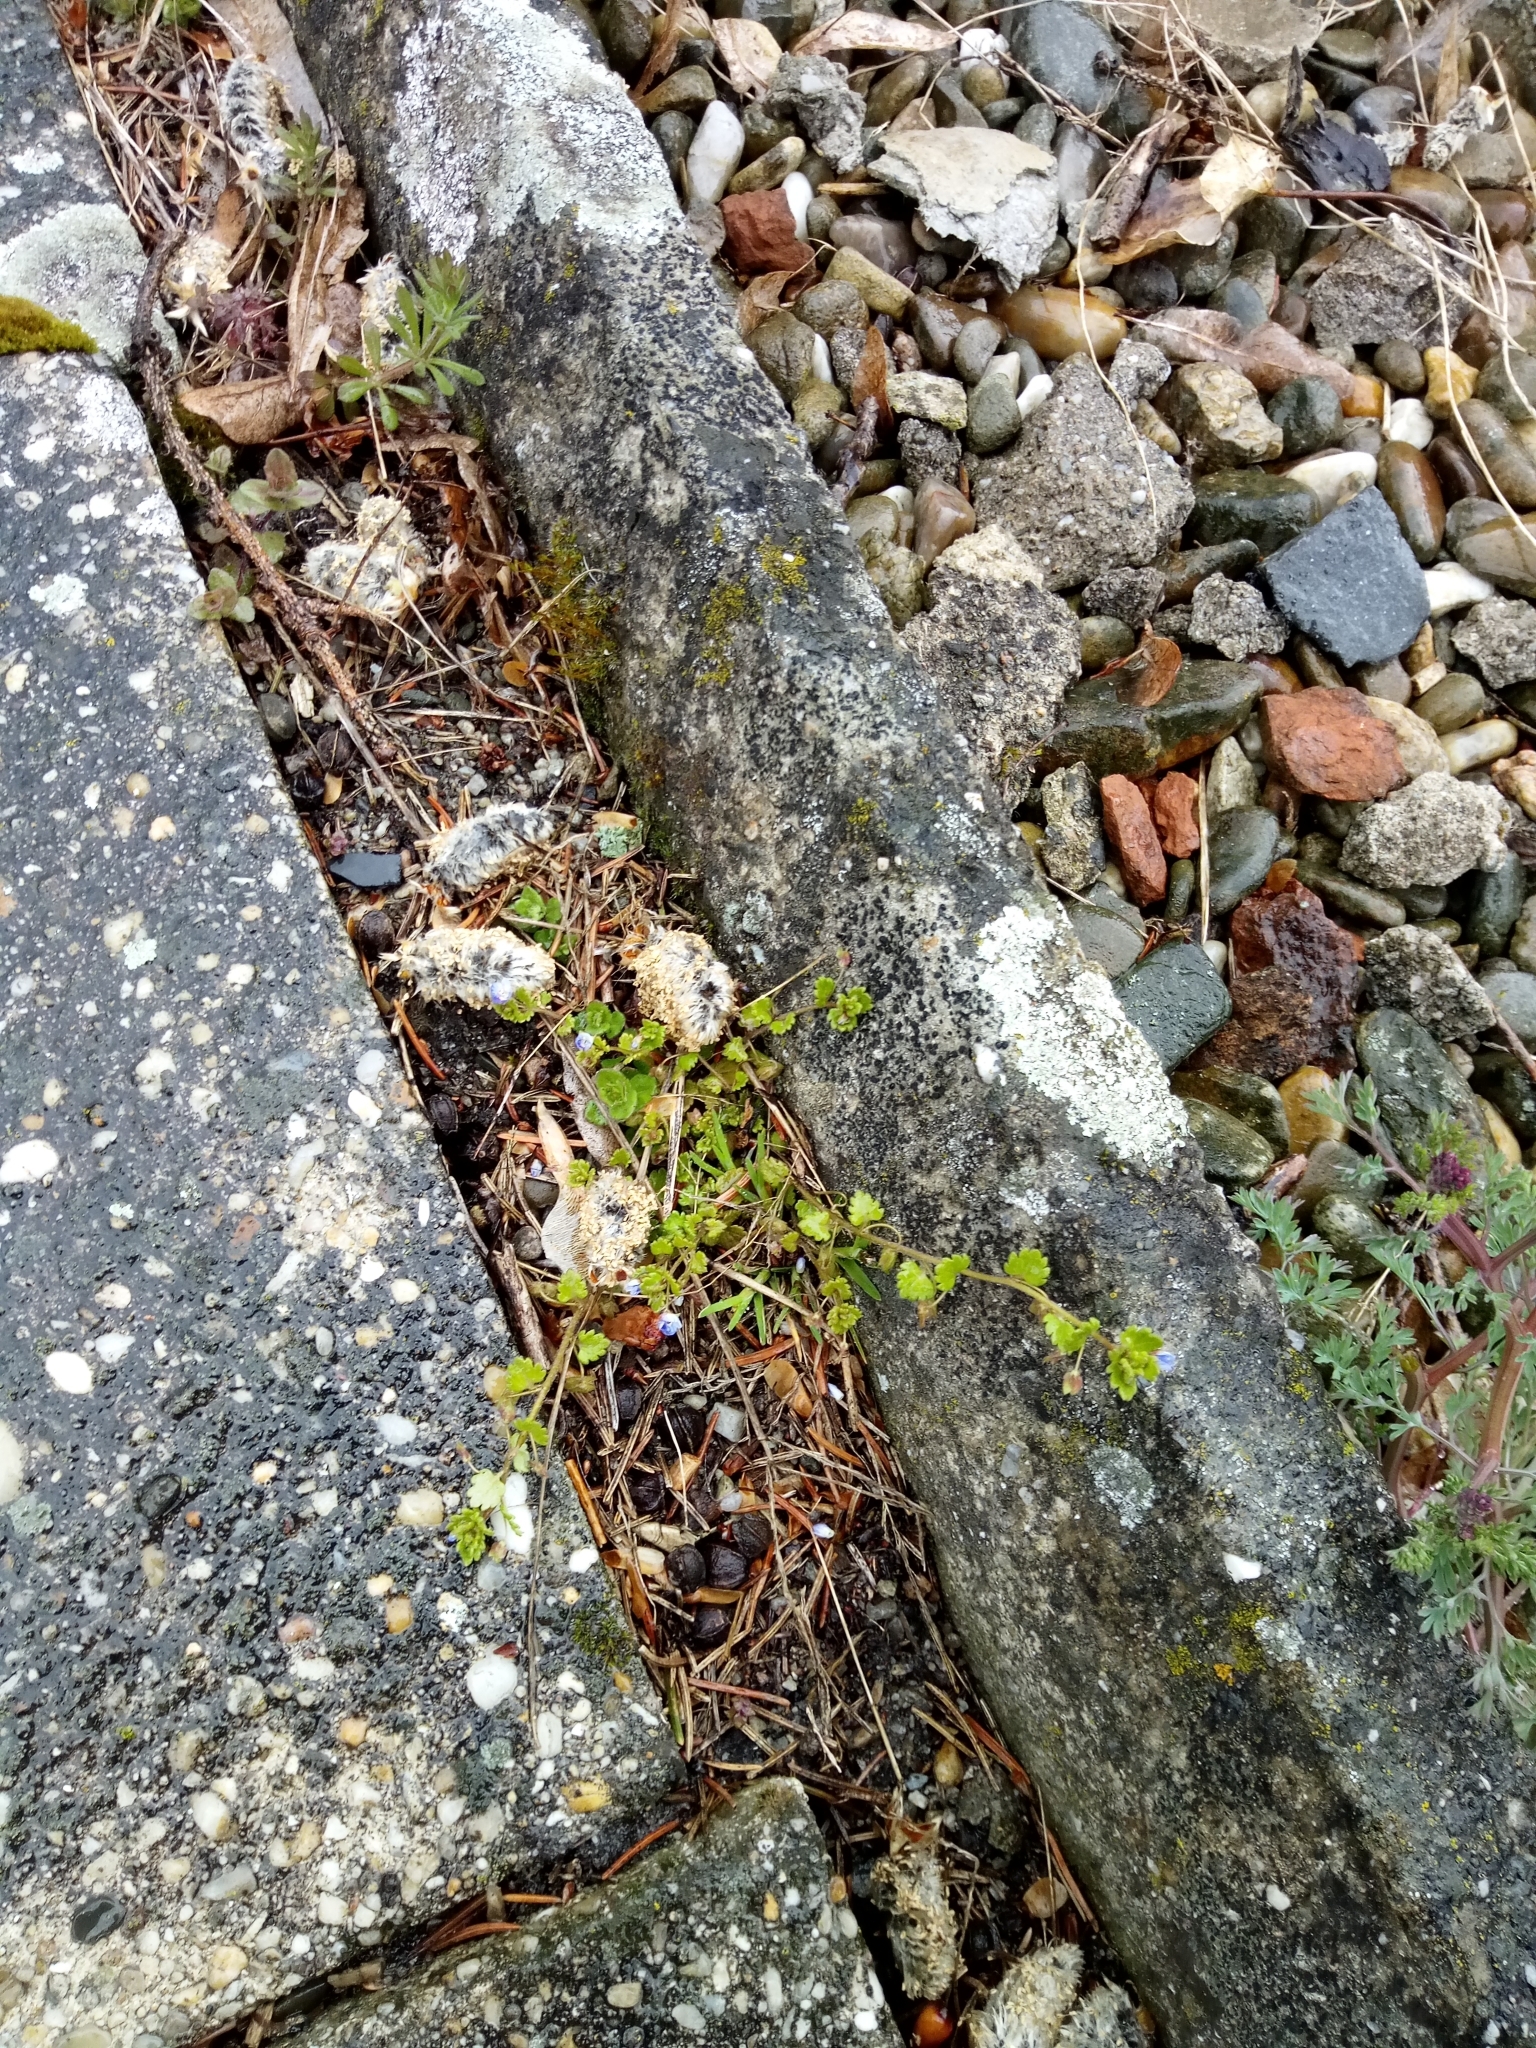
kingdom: Plantae
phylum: Tracheophyta
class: Magnoliopsida
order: Lamiales
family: Plantaginaceae
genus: Veronica
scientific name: Veronica polita
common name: Grey field-speedwell
